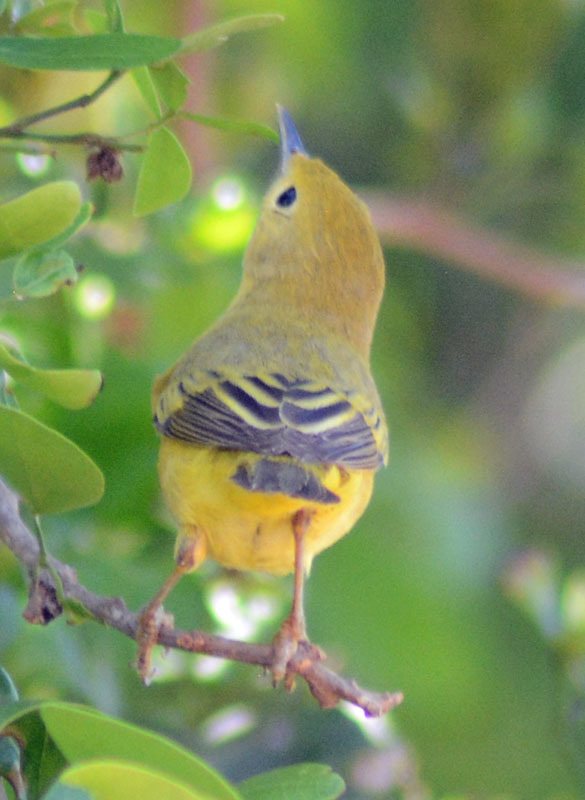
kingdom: Animalia
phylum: Chordata
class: Aves
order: Passeriformes
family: Parulidae
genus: Setophaga
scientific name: Setophaga petechia
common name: Yellow warbler
